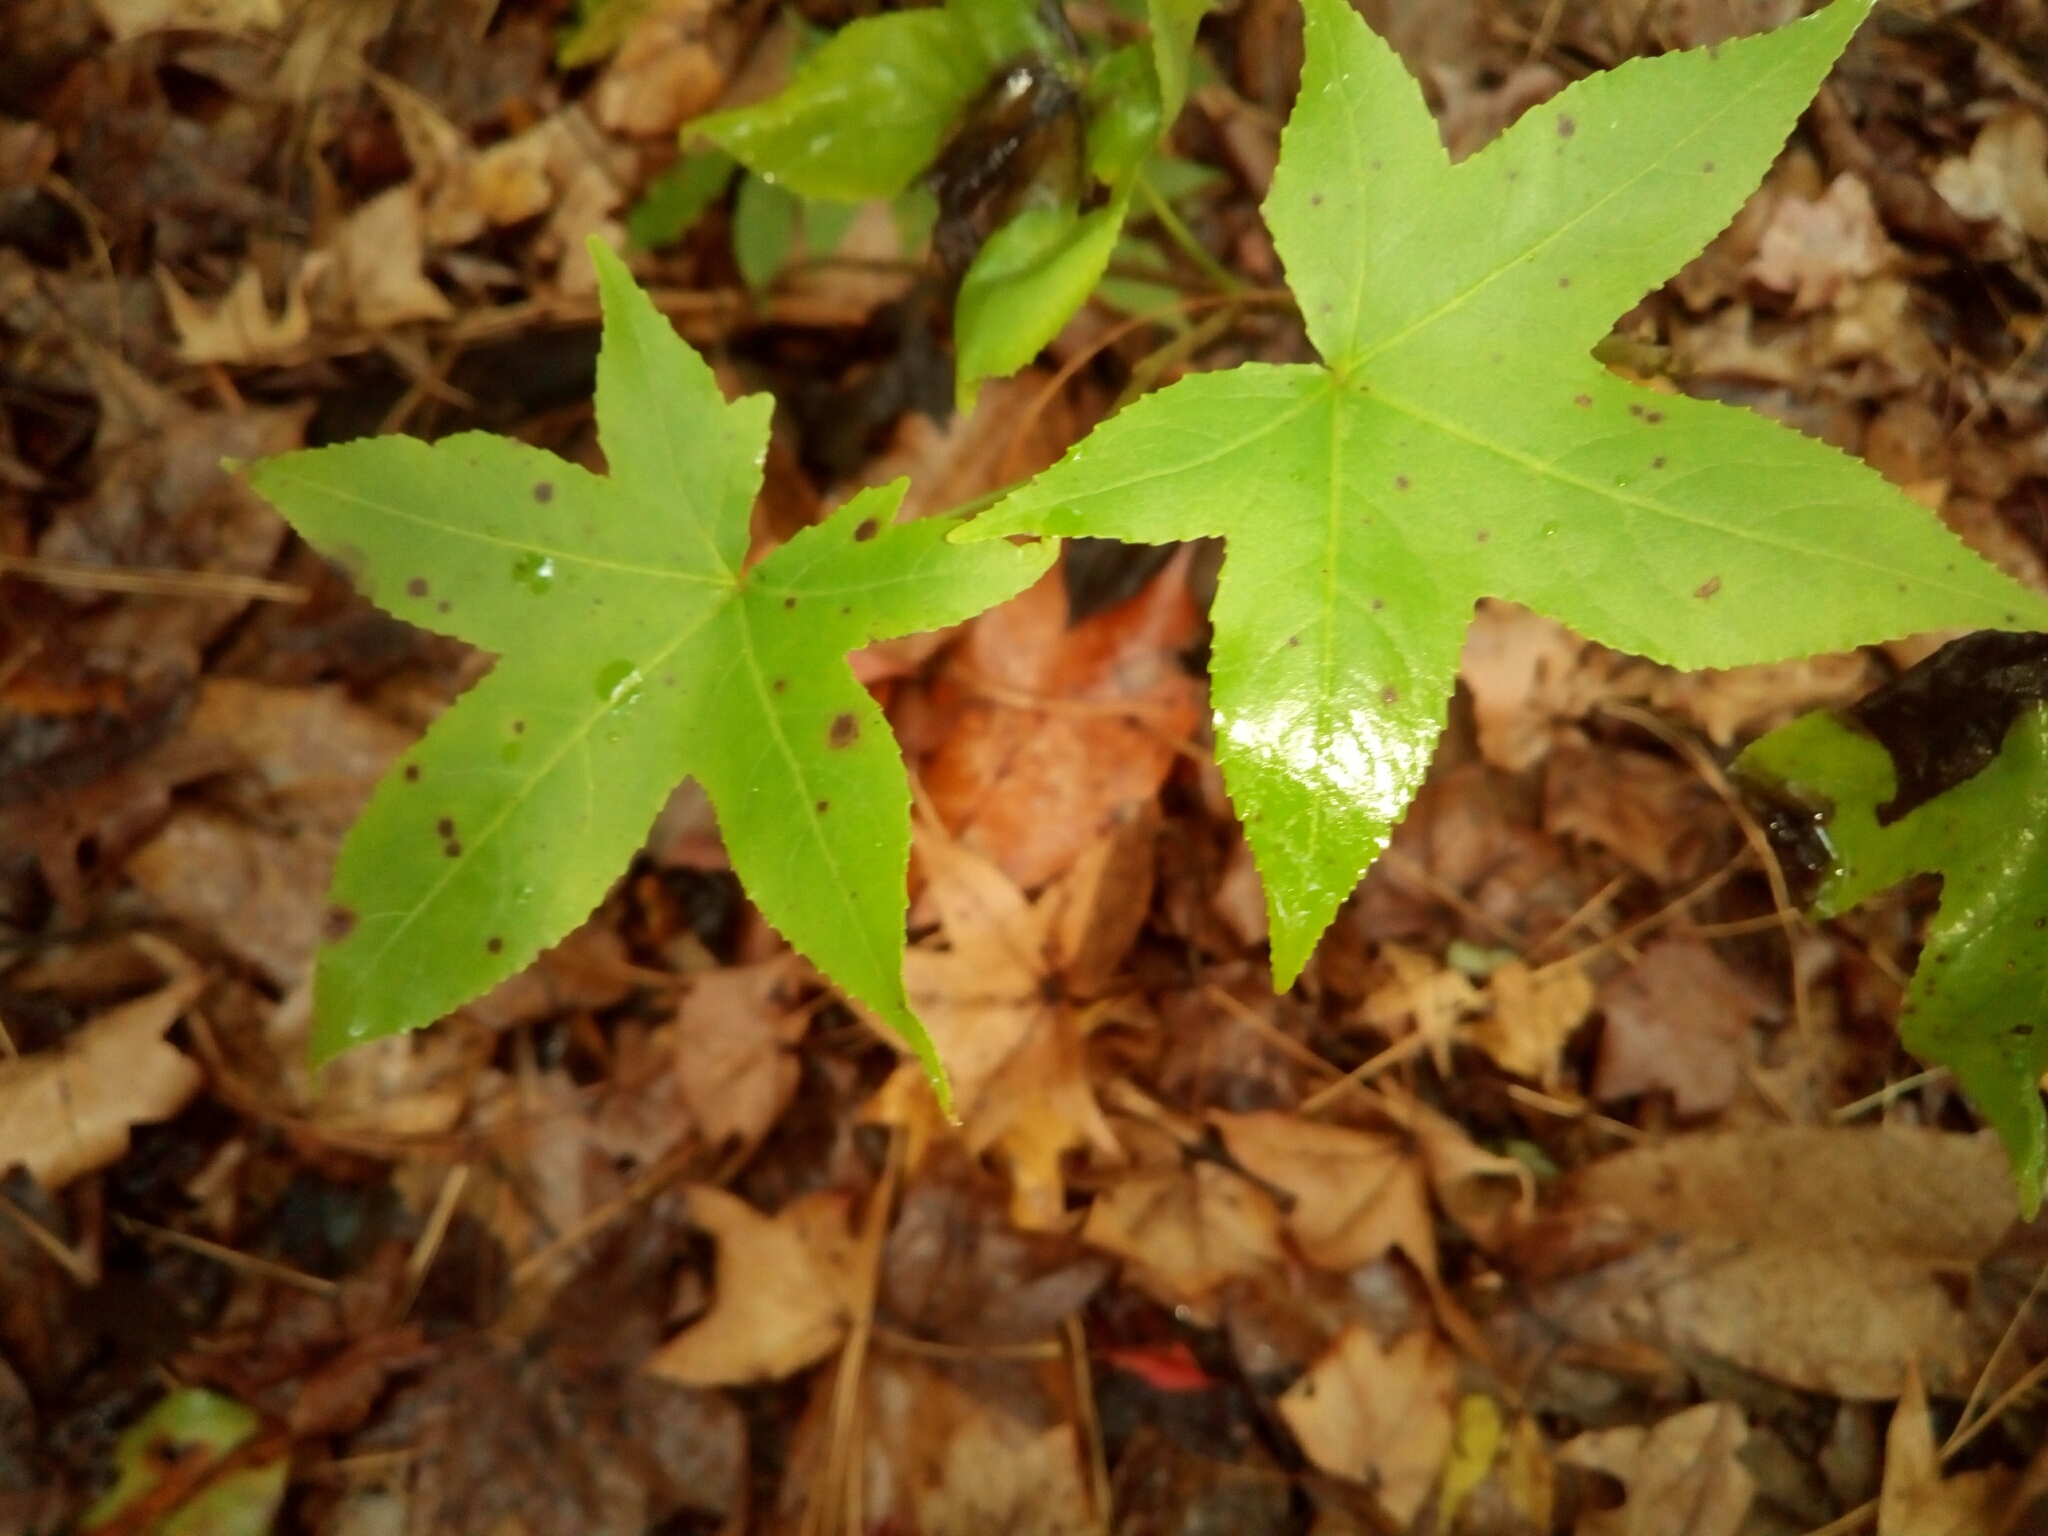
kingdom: Plantae
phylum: Tracheophyta
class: Magnoliopsida
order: Saxifragales
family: Altingiaceae
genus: Liquidambar
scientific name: Liquidambar styraciflua
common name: Sweet gum
